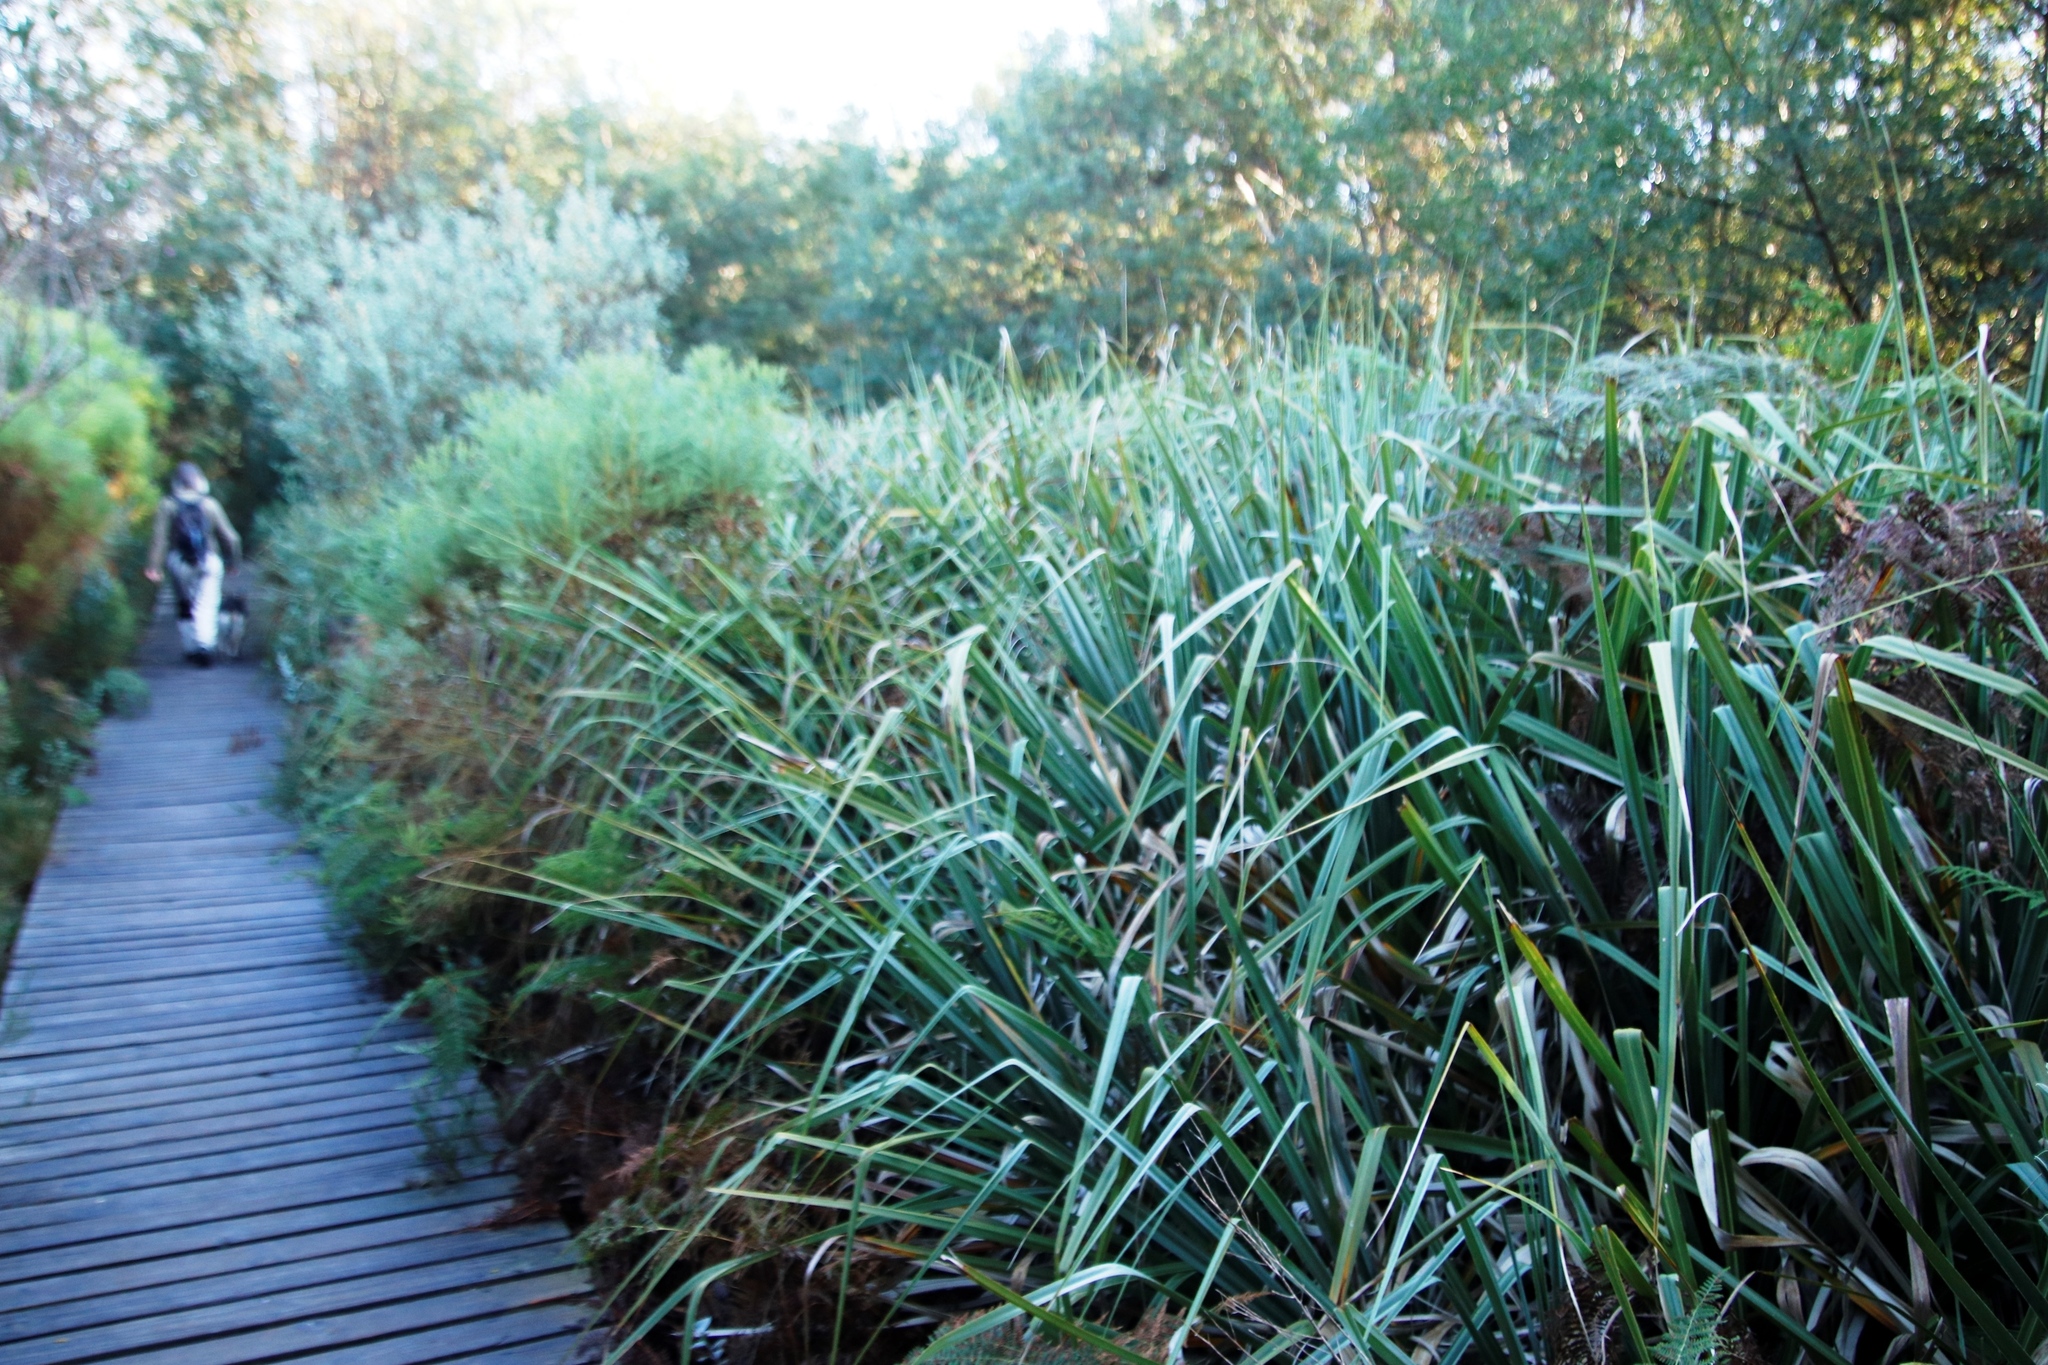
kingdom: Plantae
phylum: Tracheophyta
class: Liliopsida
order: Poales
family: Thurniaceae
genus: Prionium
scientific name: Prionium serratum
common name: Palmiet
